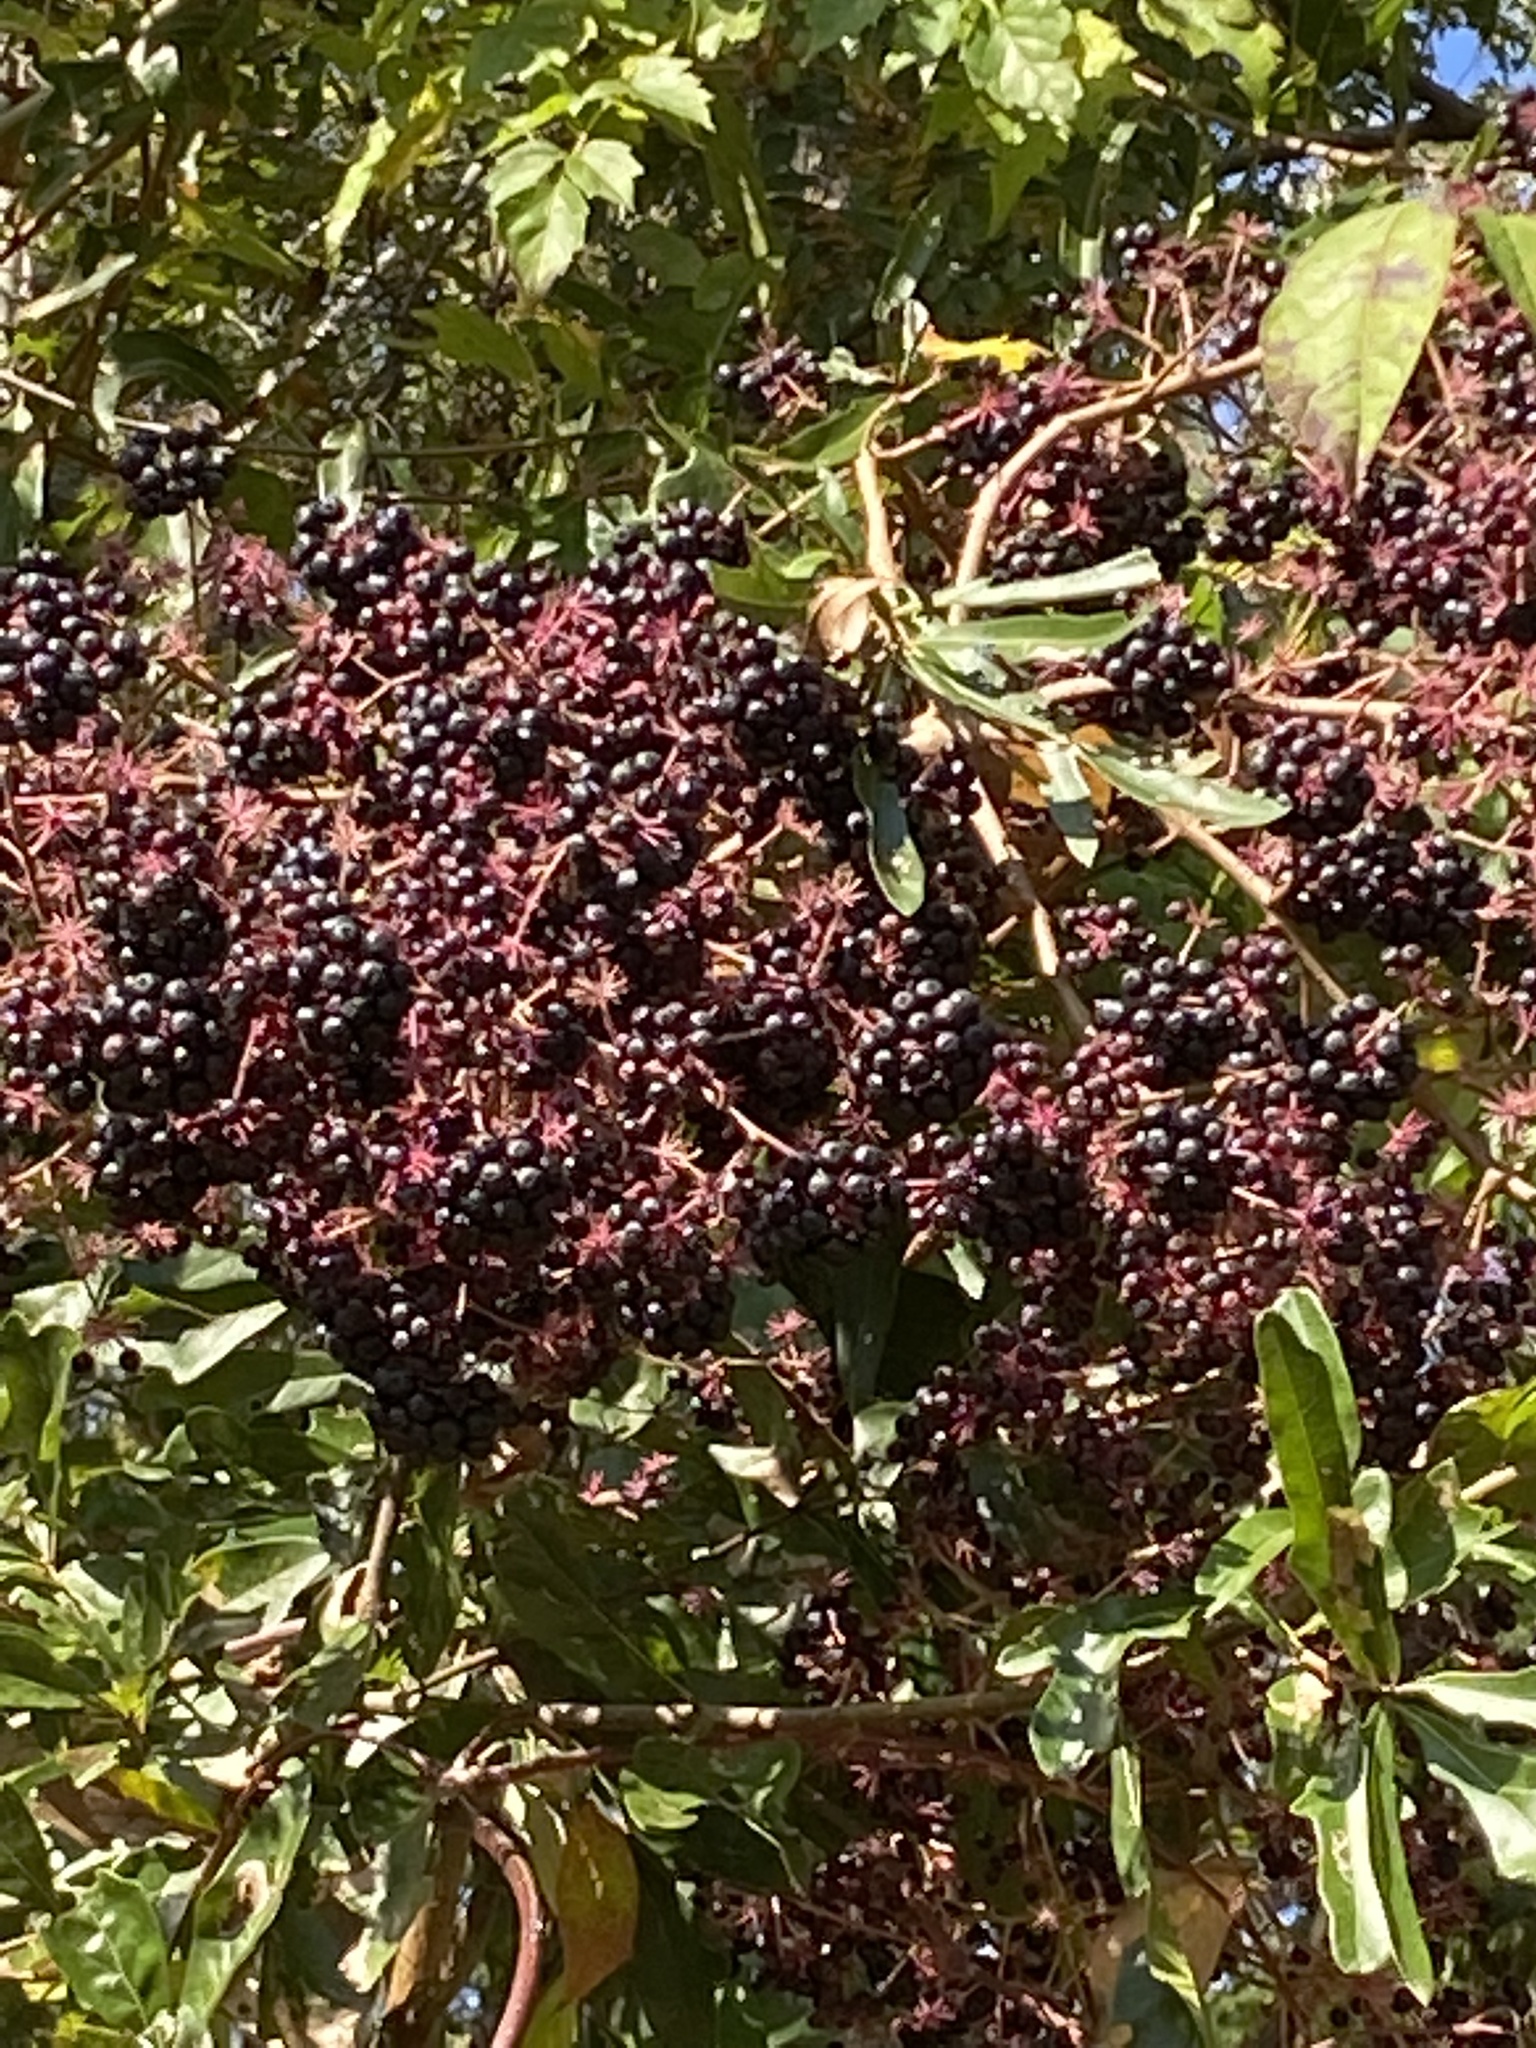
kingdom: Plantae
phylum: Tracheophyta
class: Magnoliopsida
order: Dipsacales
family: Viburnaceae
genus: Sambucus
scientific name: Sambucus canadensis
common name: American elder
